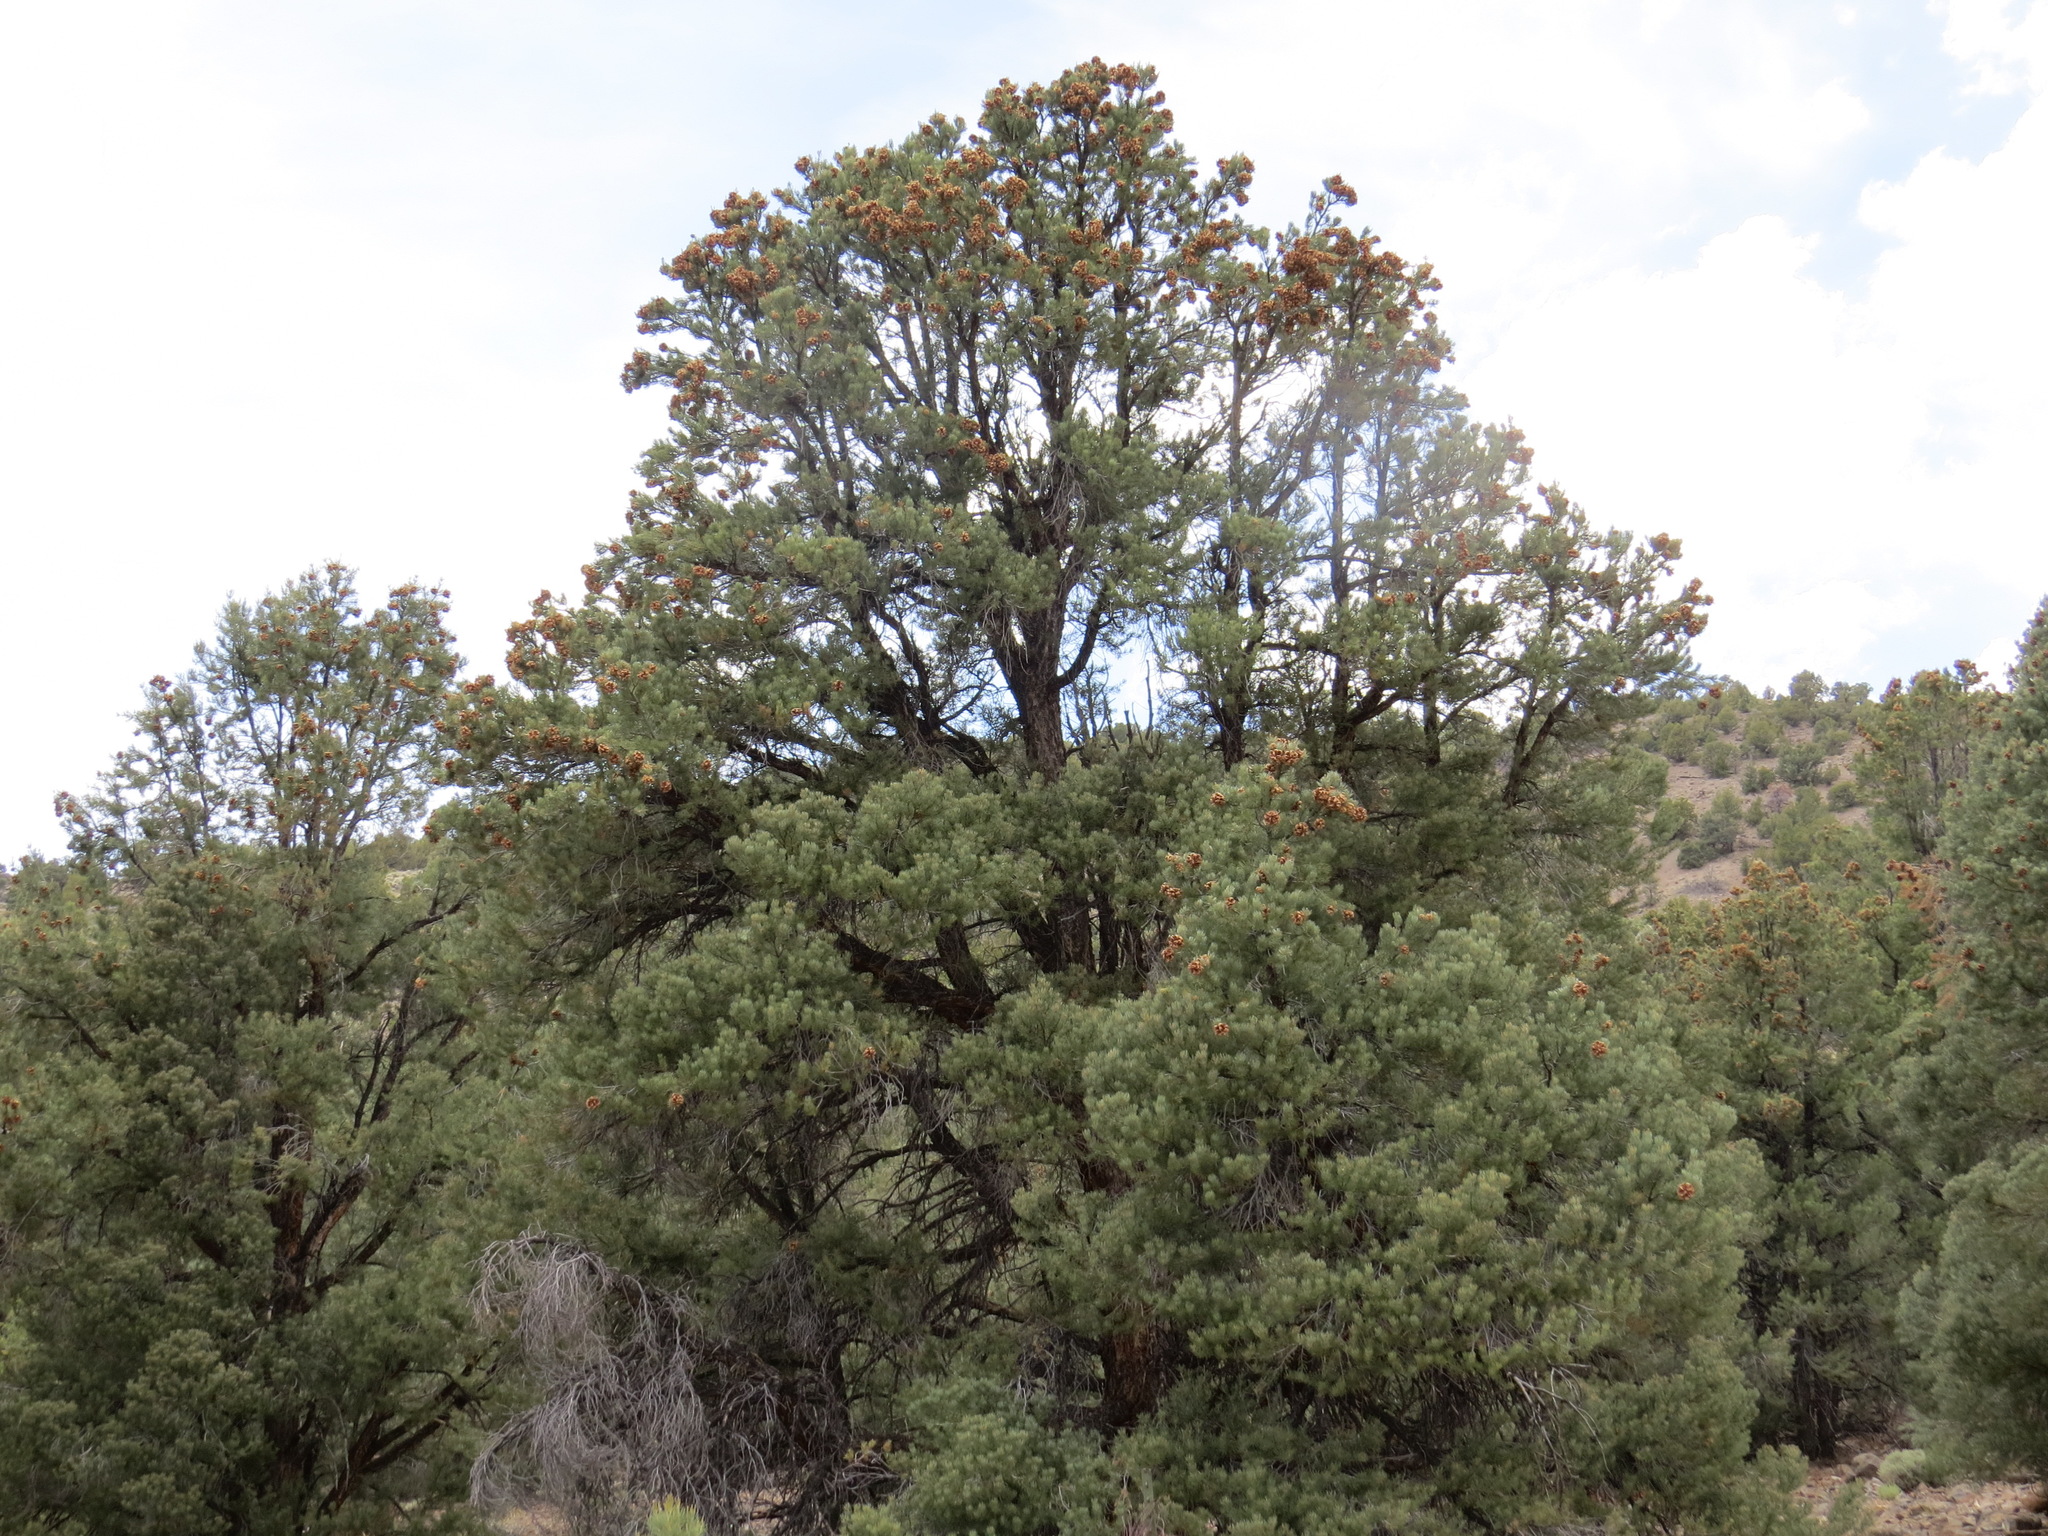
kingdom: Plantae
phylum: Tracheophyta
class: Pinopsida
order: Pinales
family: Pinaceae
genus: Pinus
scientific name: Pinus monophylla
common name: One-leaved nut pine
